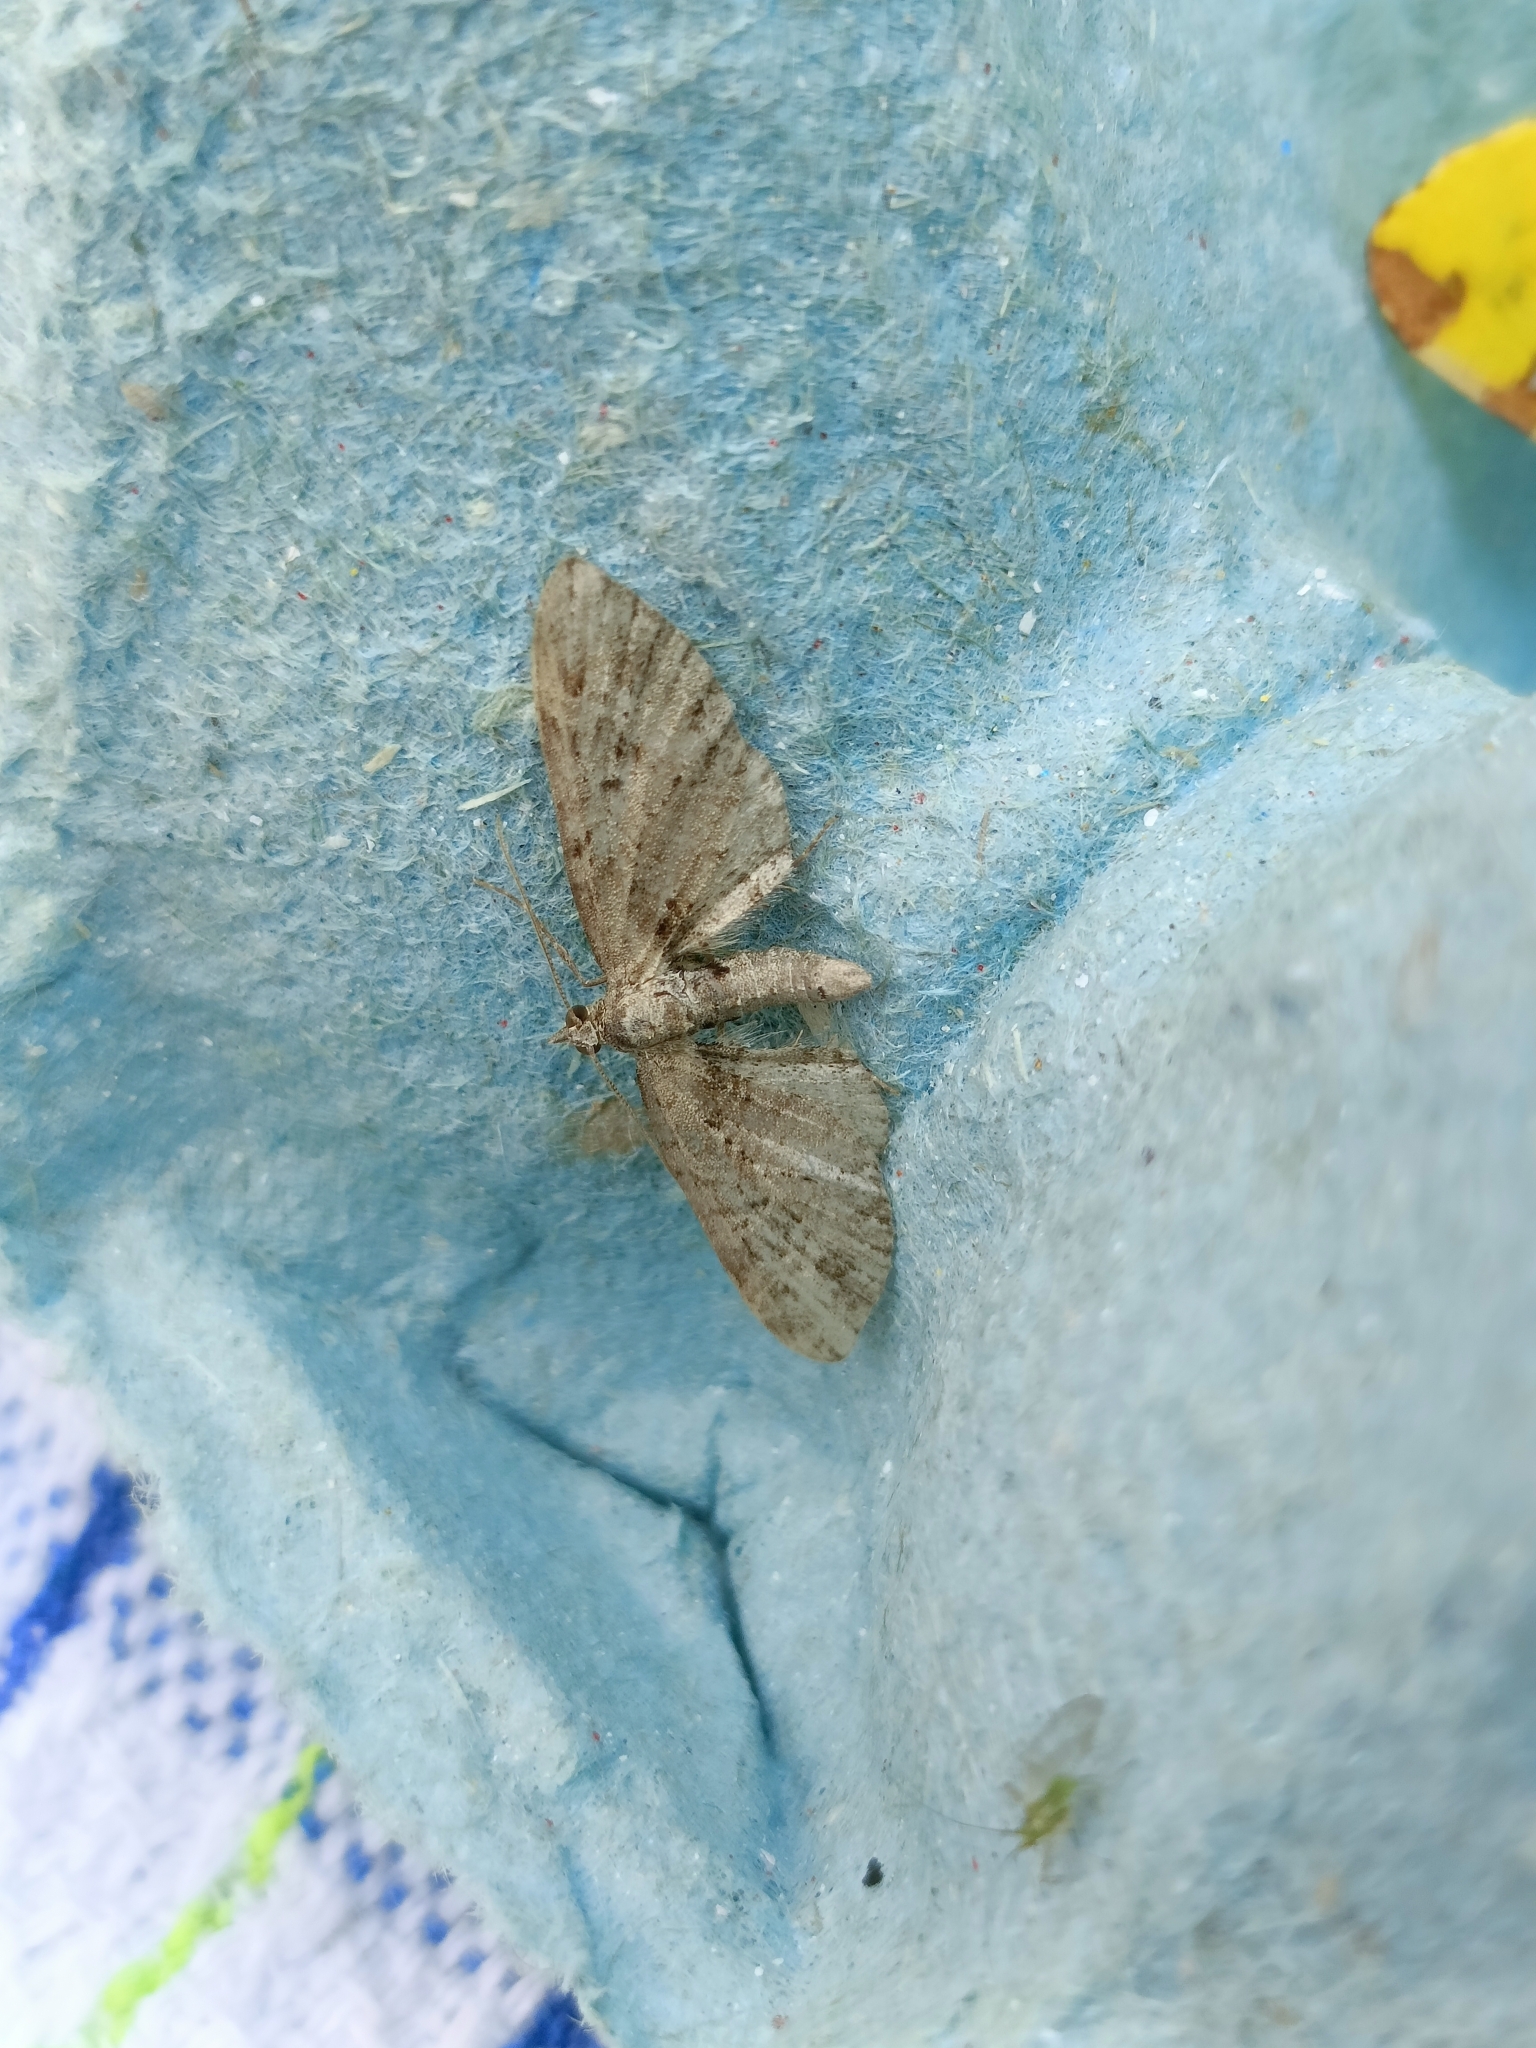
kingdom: Animalia
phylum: Arthropoda
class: Insecta
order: Lepidoptera
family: Geometridae
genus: Eupithecia
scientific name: Eupithecia exiguata
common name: Mottled pug
